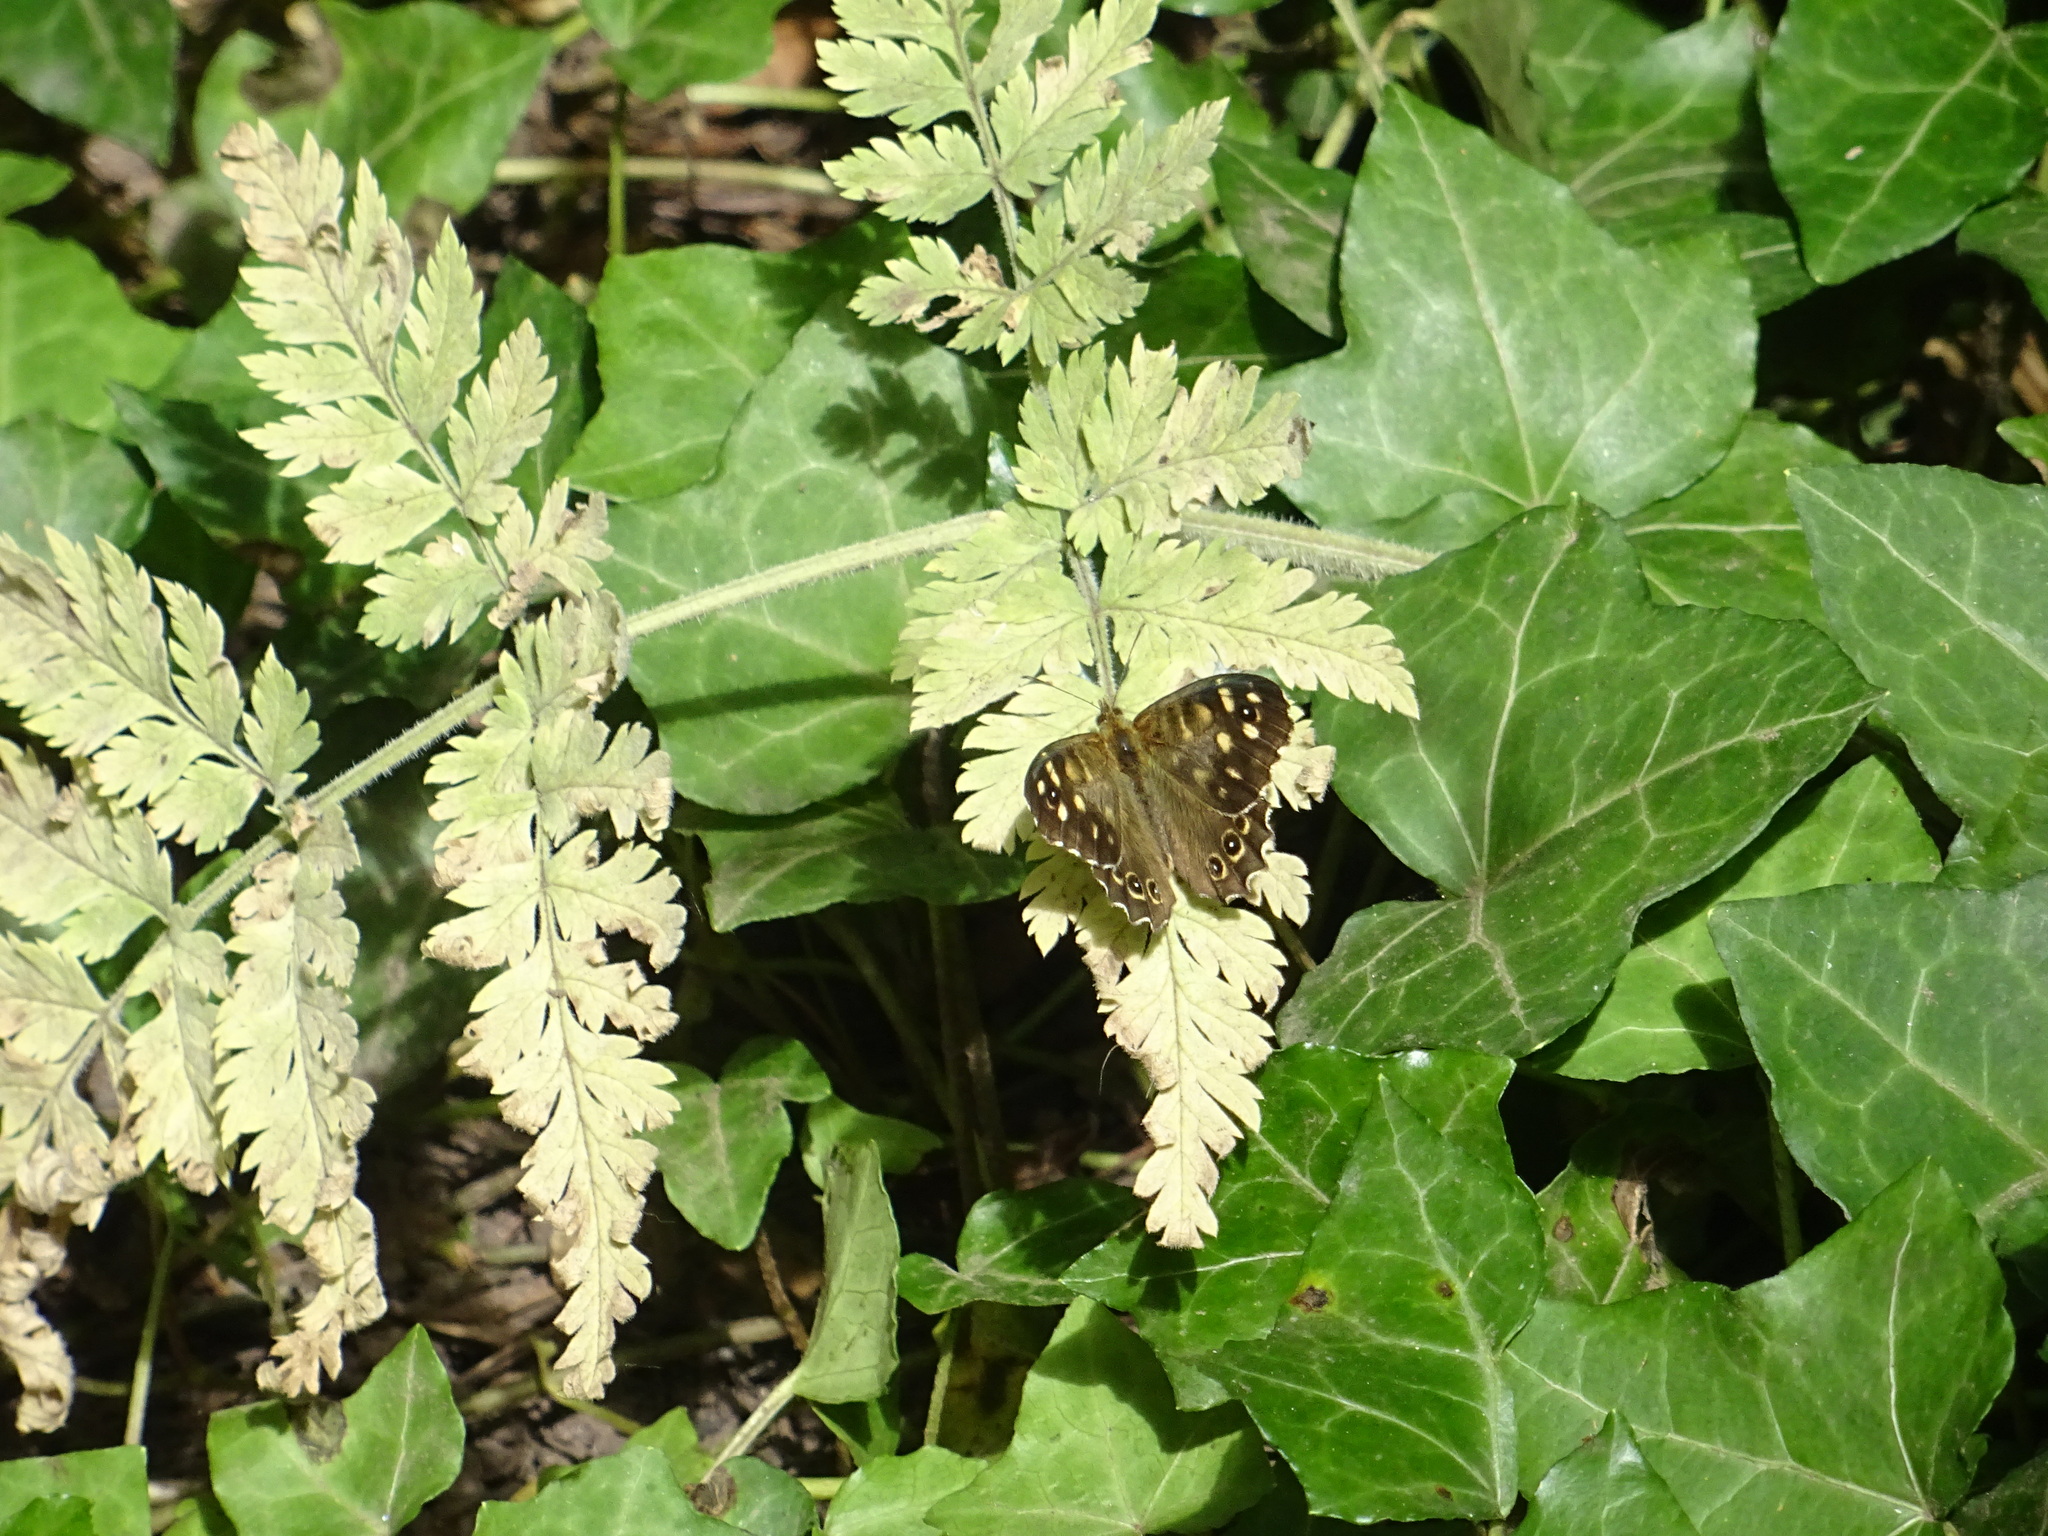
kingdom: Animalia
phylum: Arthropoda
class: Insecta
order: Lepidoptera
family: Nymphalidae
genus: Pararge
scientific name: Pararge aegeria
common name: Speckled wood
